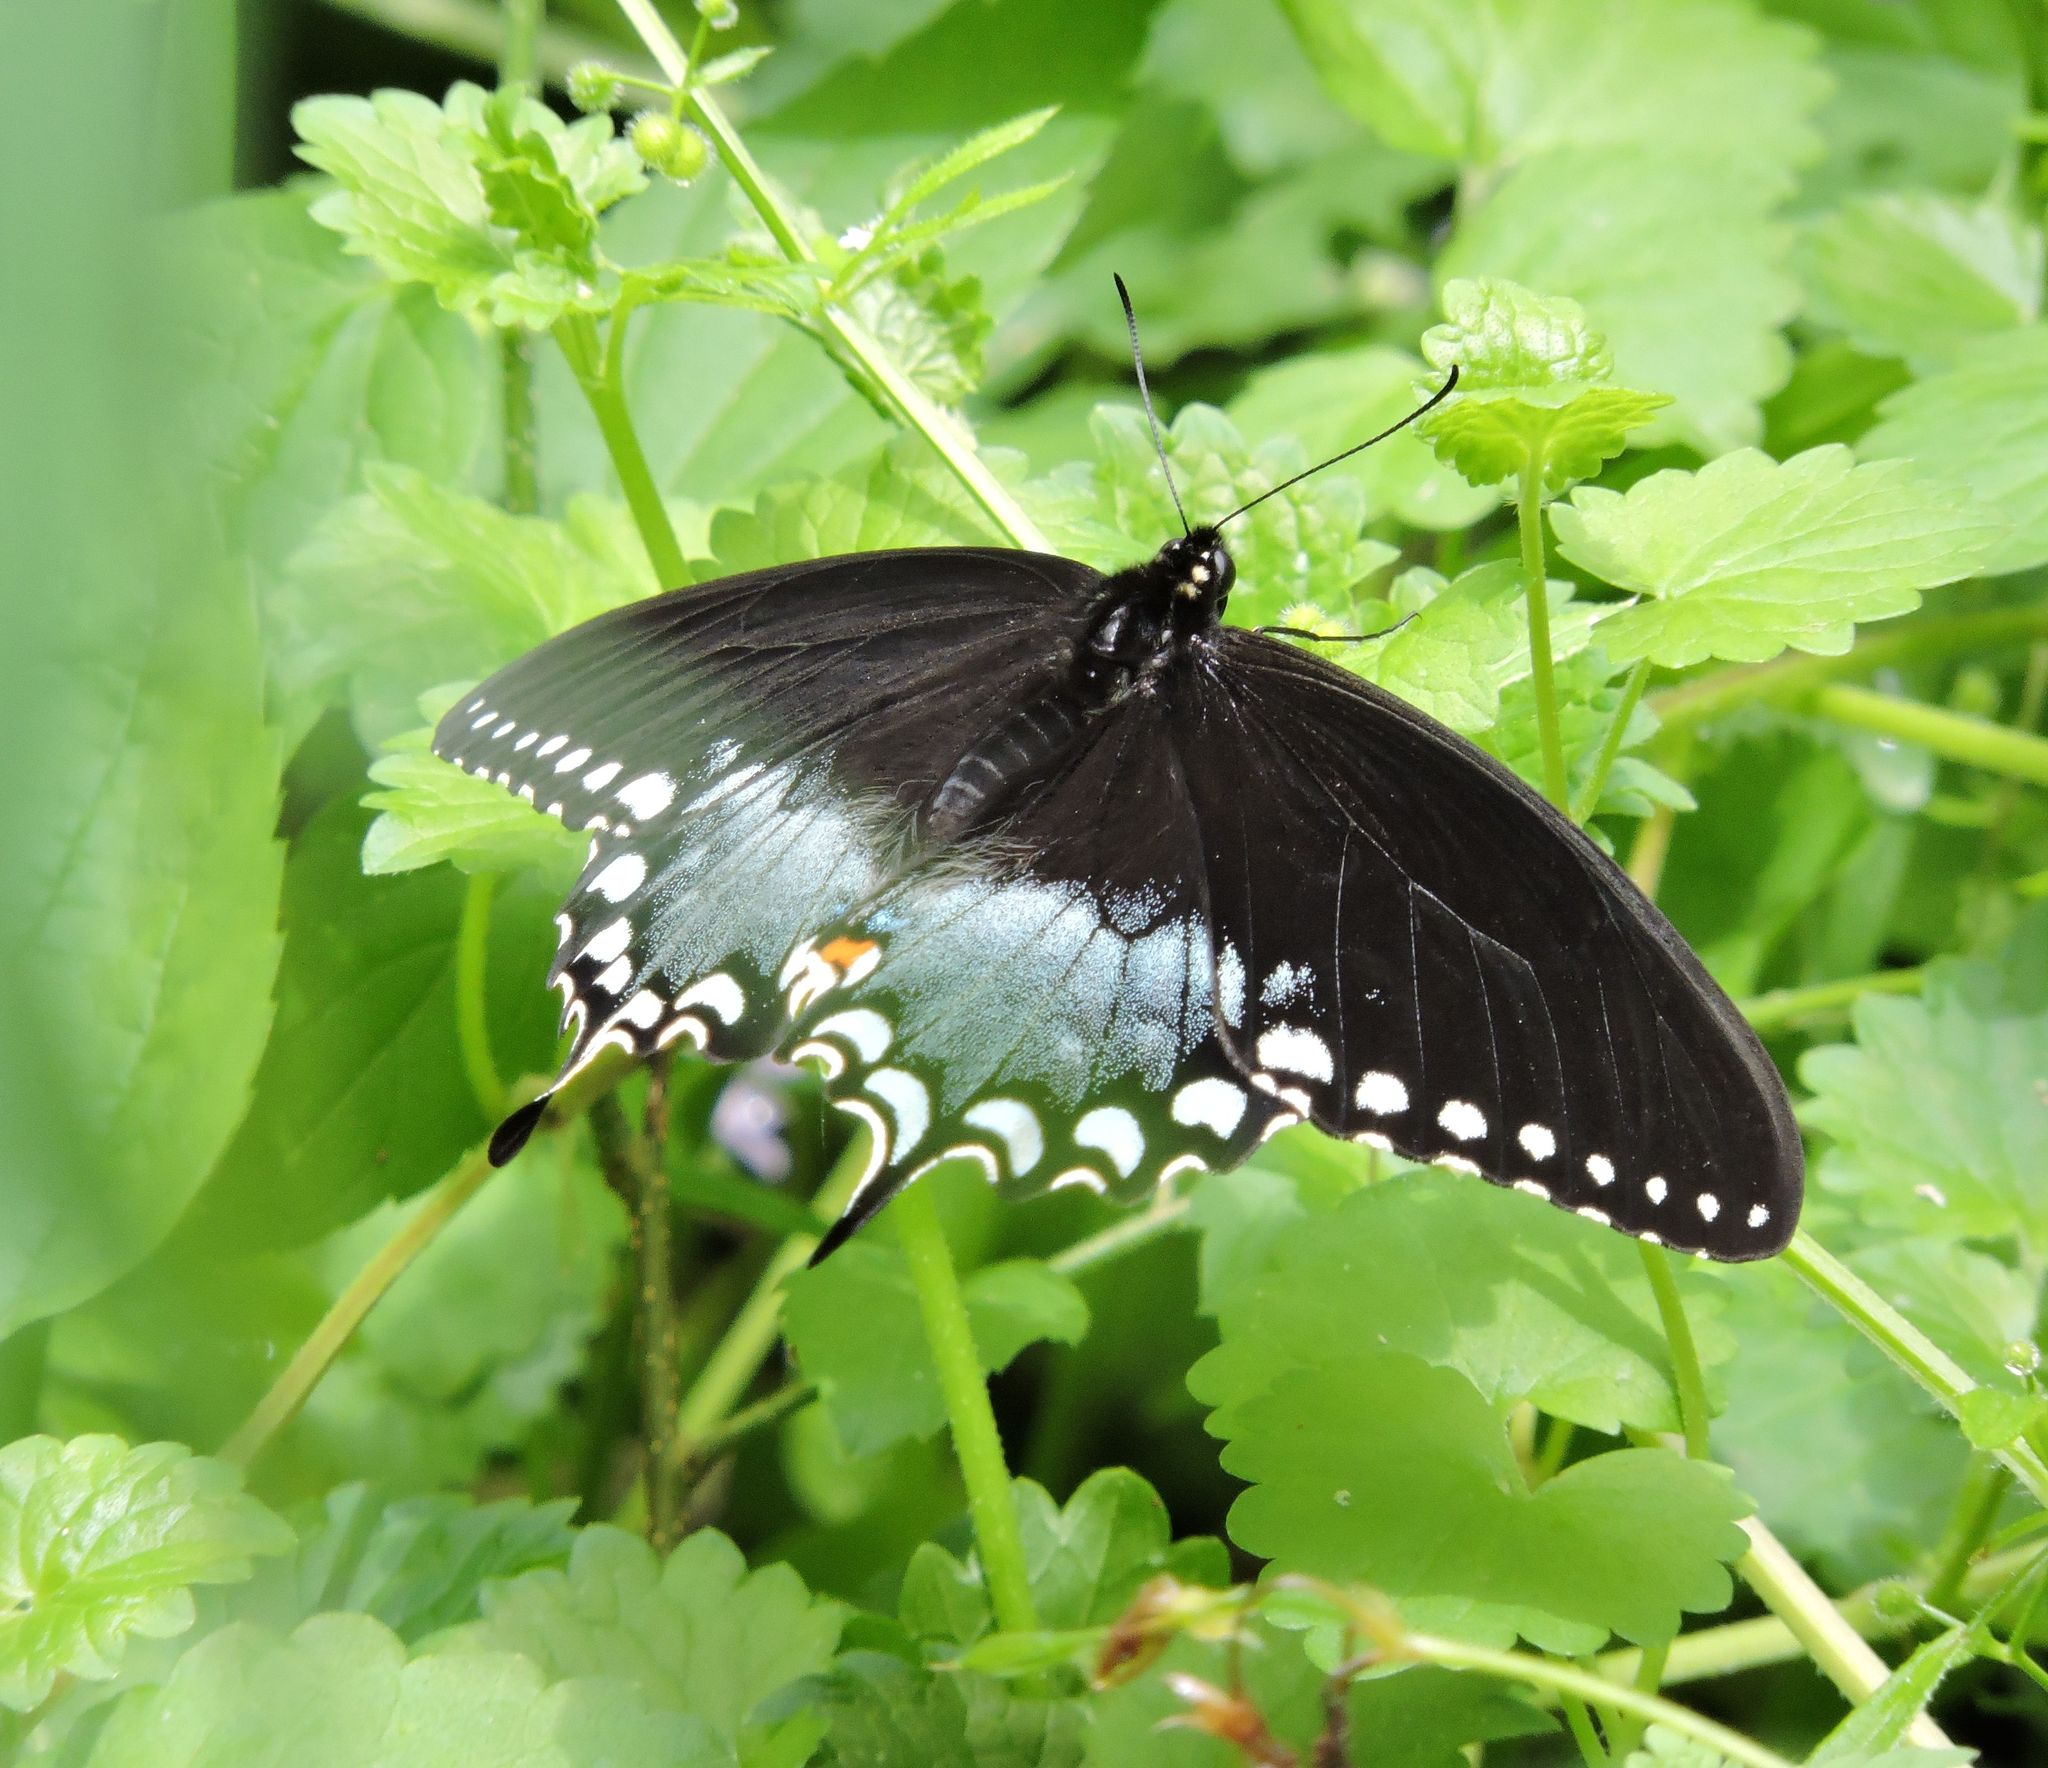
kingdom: Animalia
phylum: Arthropoda
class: Insecta
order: Lepidoptera
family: Papilionidae
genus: Papilio
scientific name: Papilio troilus
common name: Spicebush swallowtail
